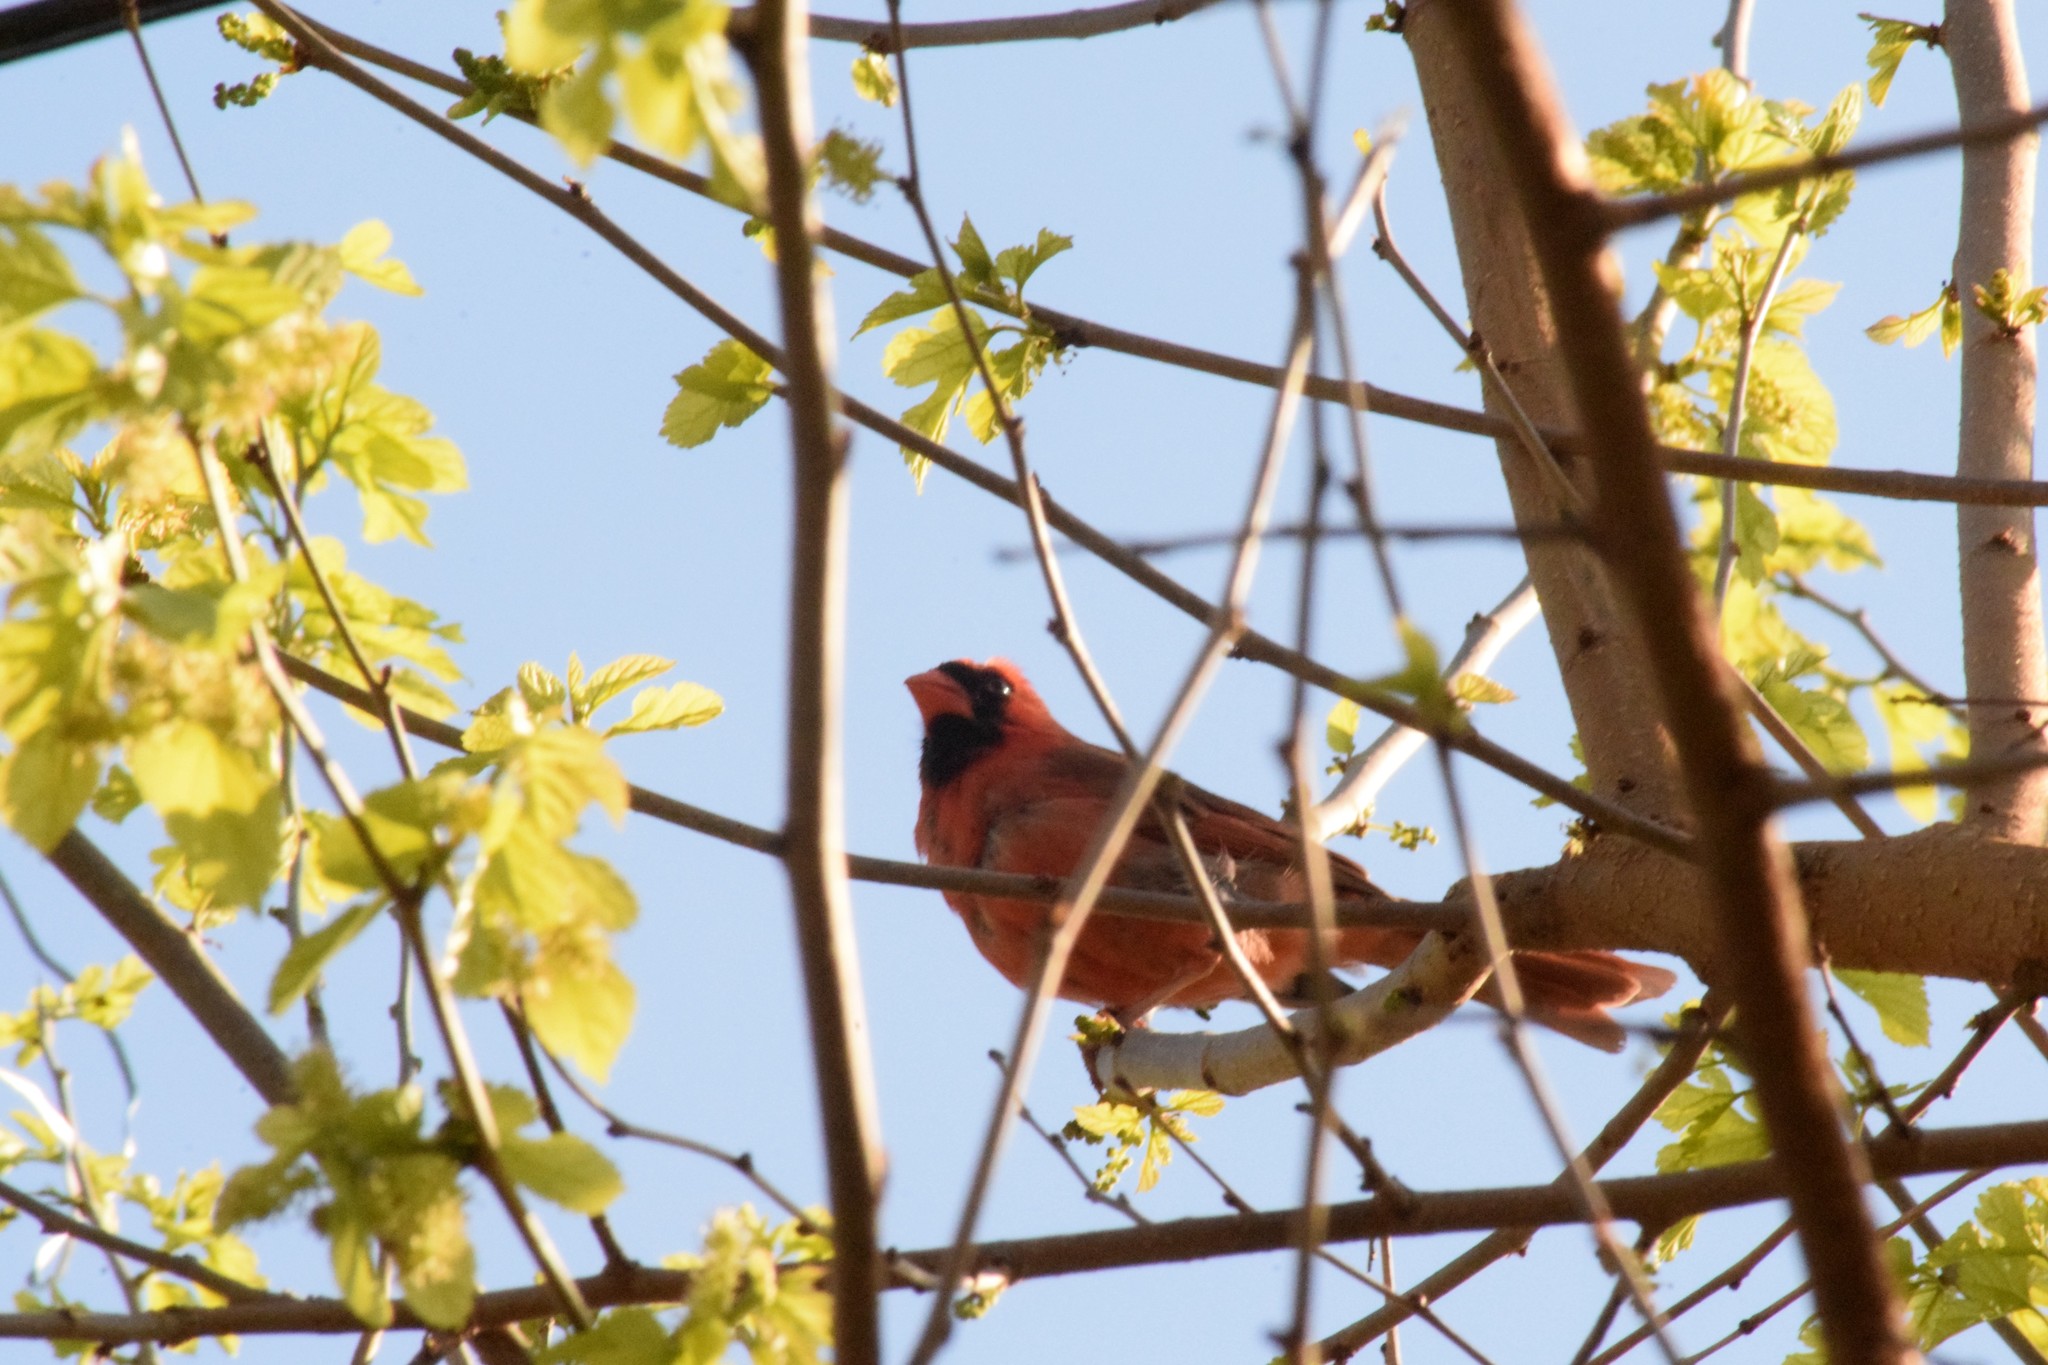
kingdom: Animalia
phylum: Chordata
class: Aves
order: Passeriformes
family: Cardinalidae
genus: Cardinalis
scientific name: Cardinalis cardinalis
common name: Northern cardinal
